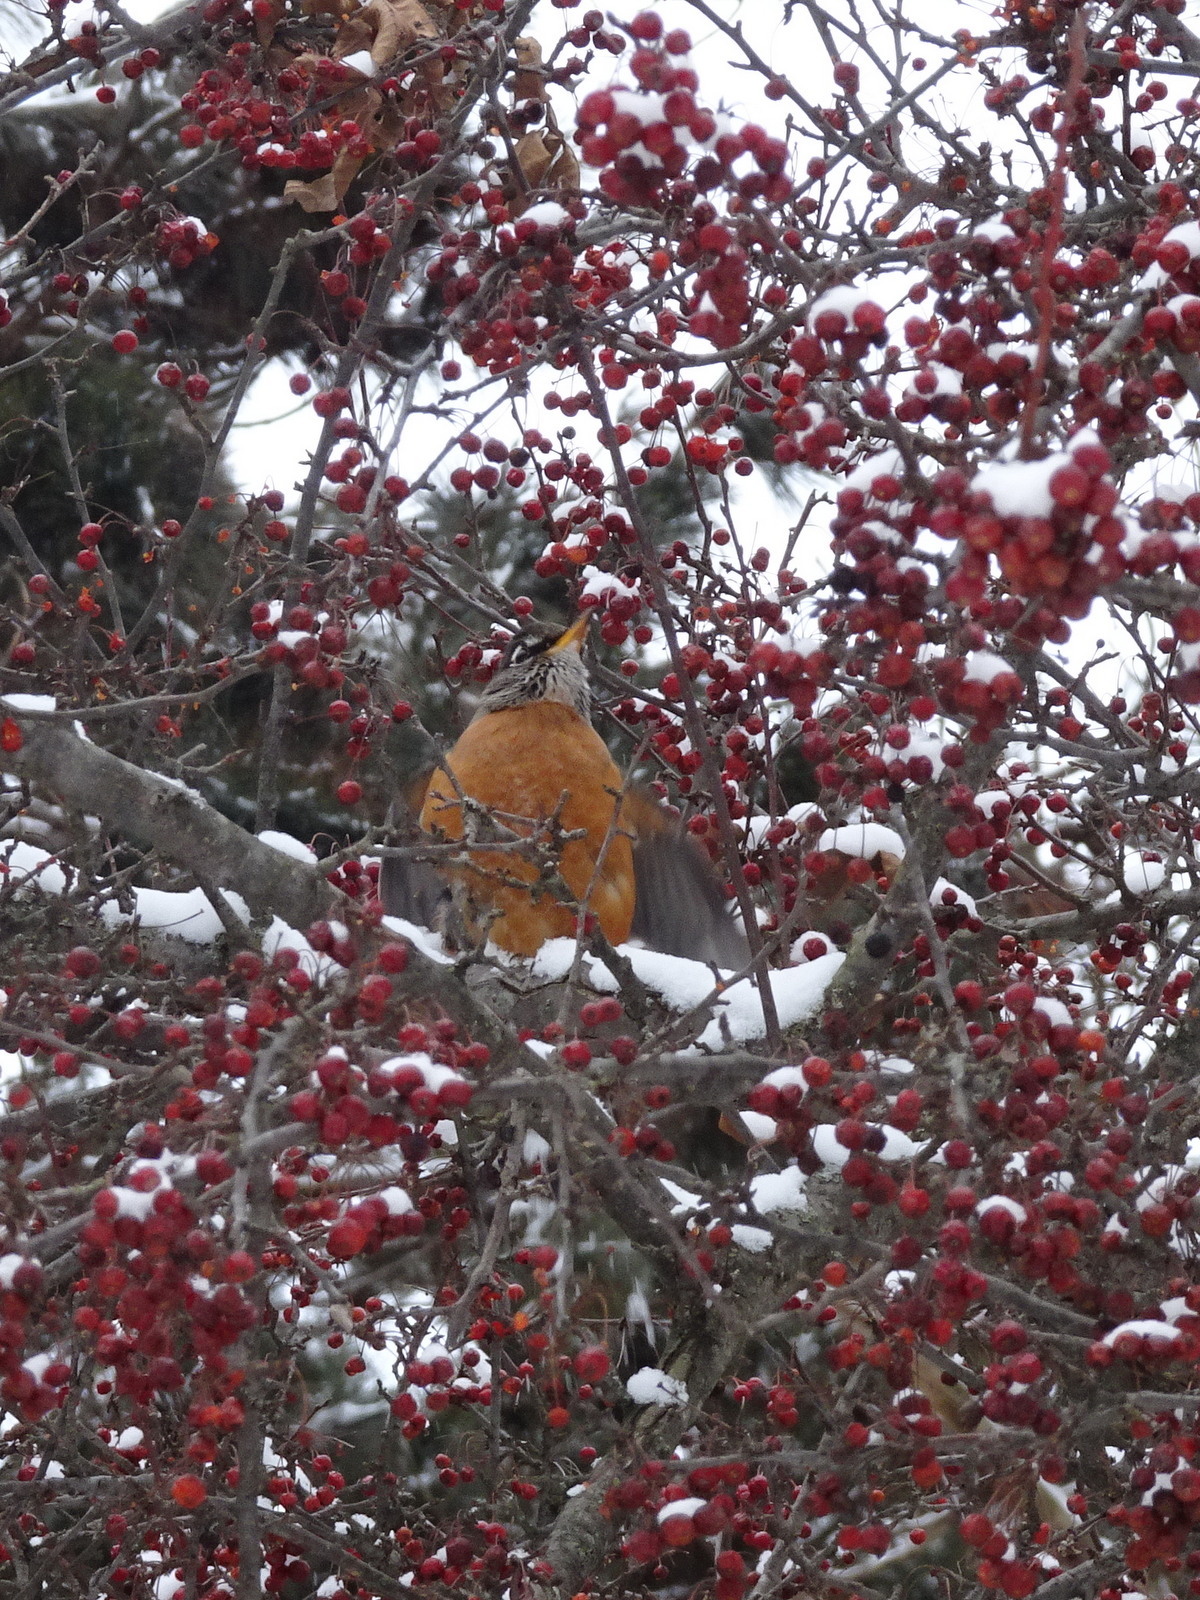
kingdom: Animalia
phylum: Chordata
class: Aves
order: Passeriformes
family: Turdidae
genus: Turdus
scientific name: Turdus migratorius
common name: American robin
